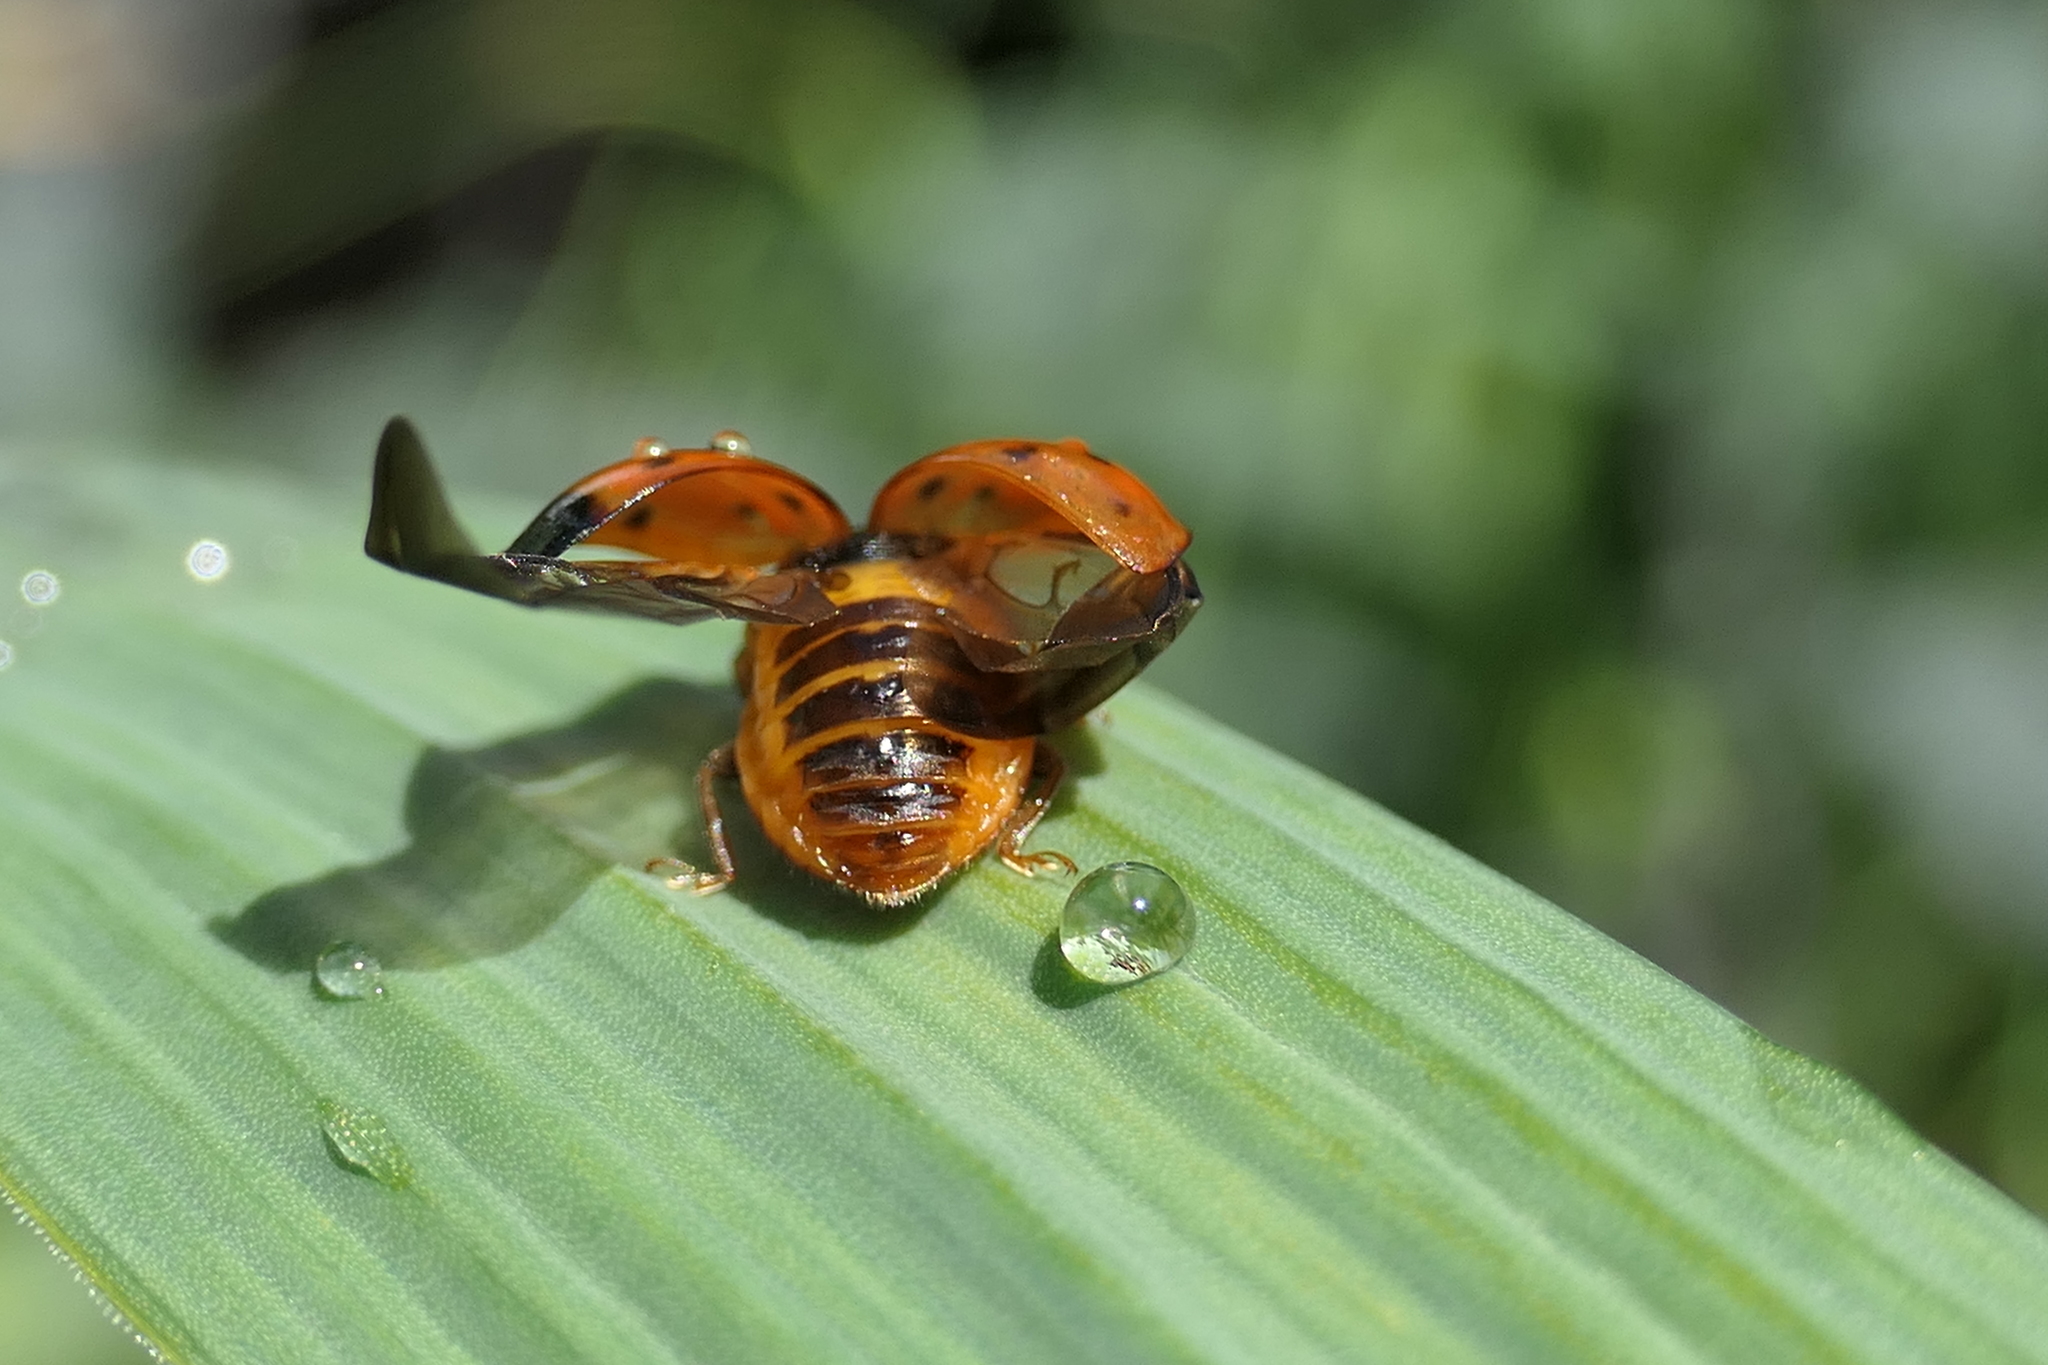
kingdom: Animalia
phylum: Arthropoda
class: Insecta
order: Coleoptera
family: Coccinellidae
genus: Harmonia
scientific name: Harmonia axyridis
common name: Harlequin ladybird
